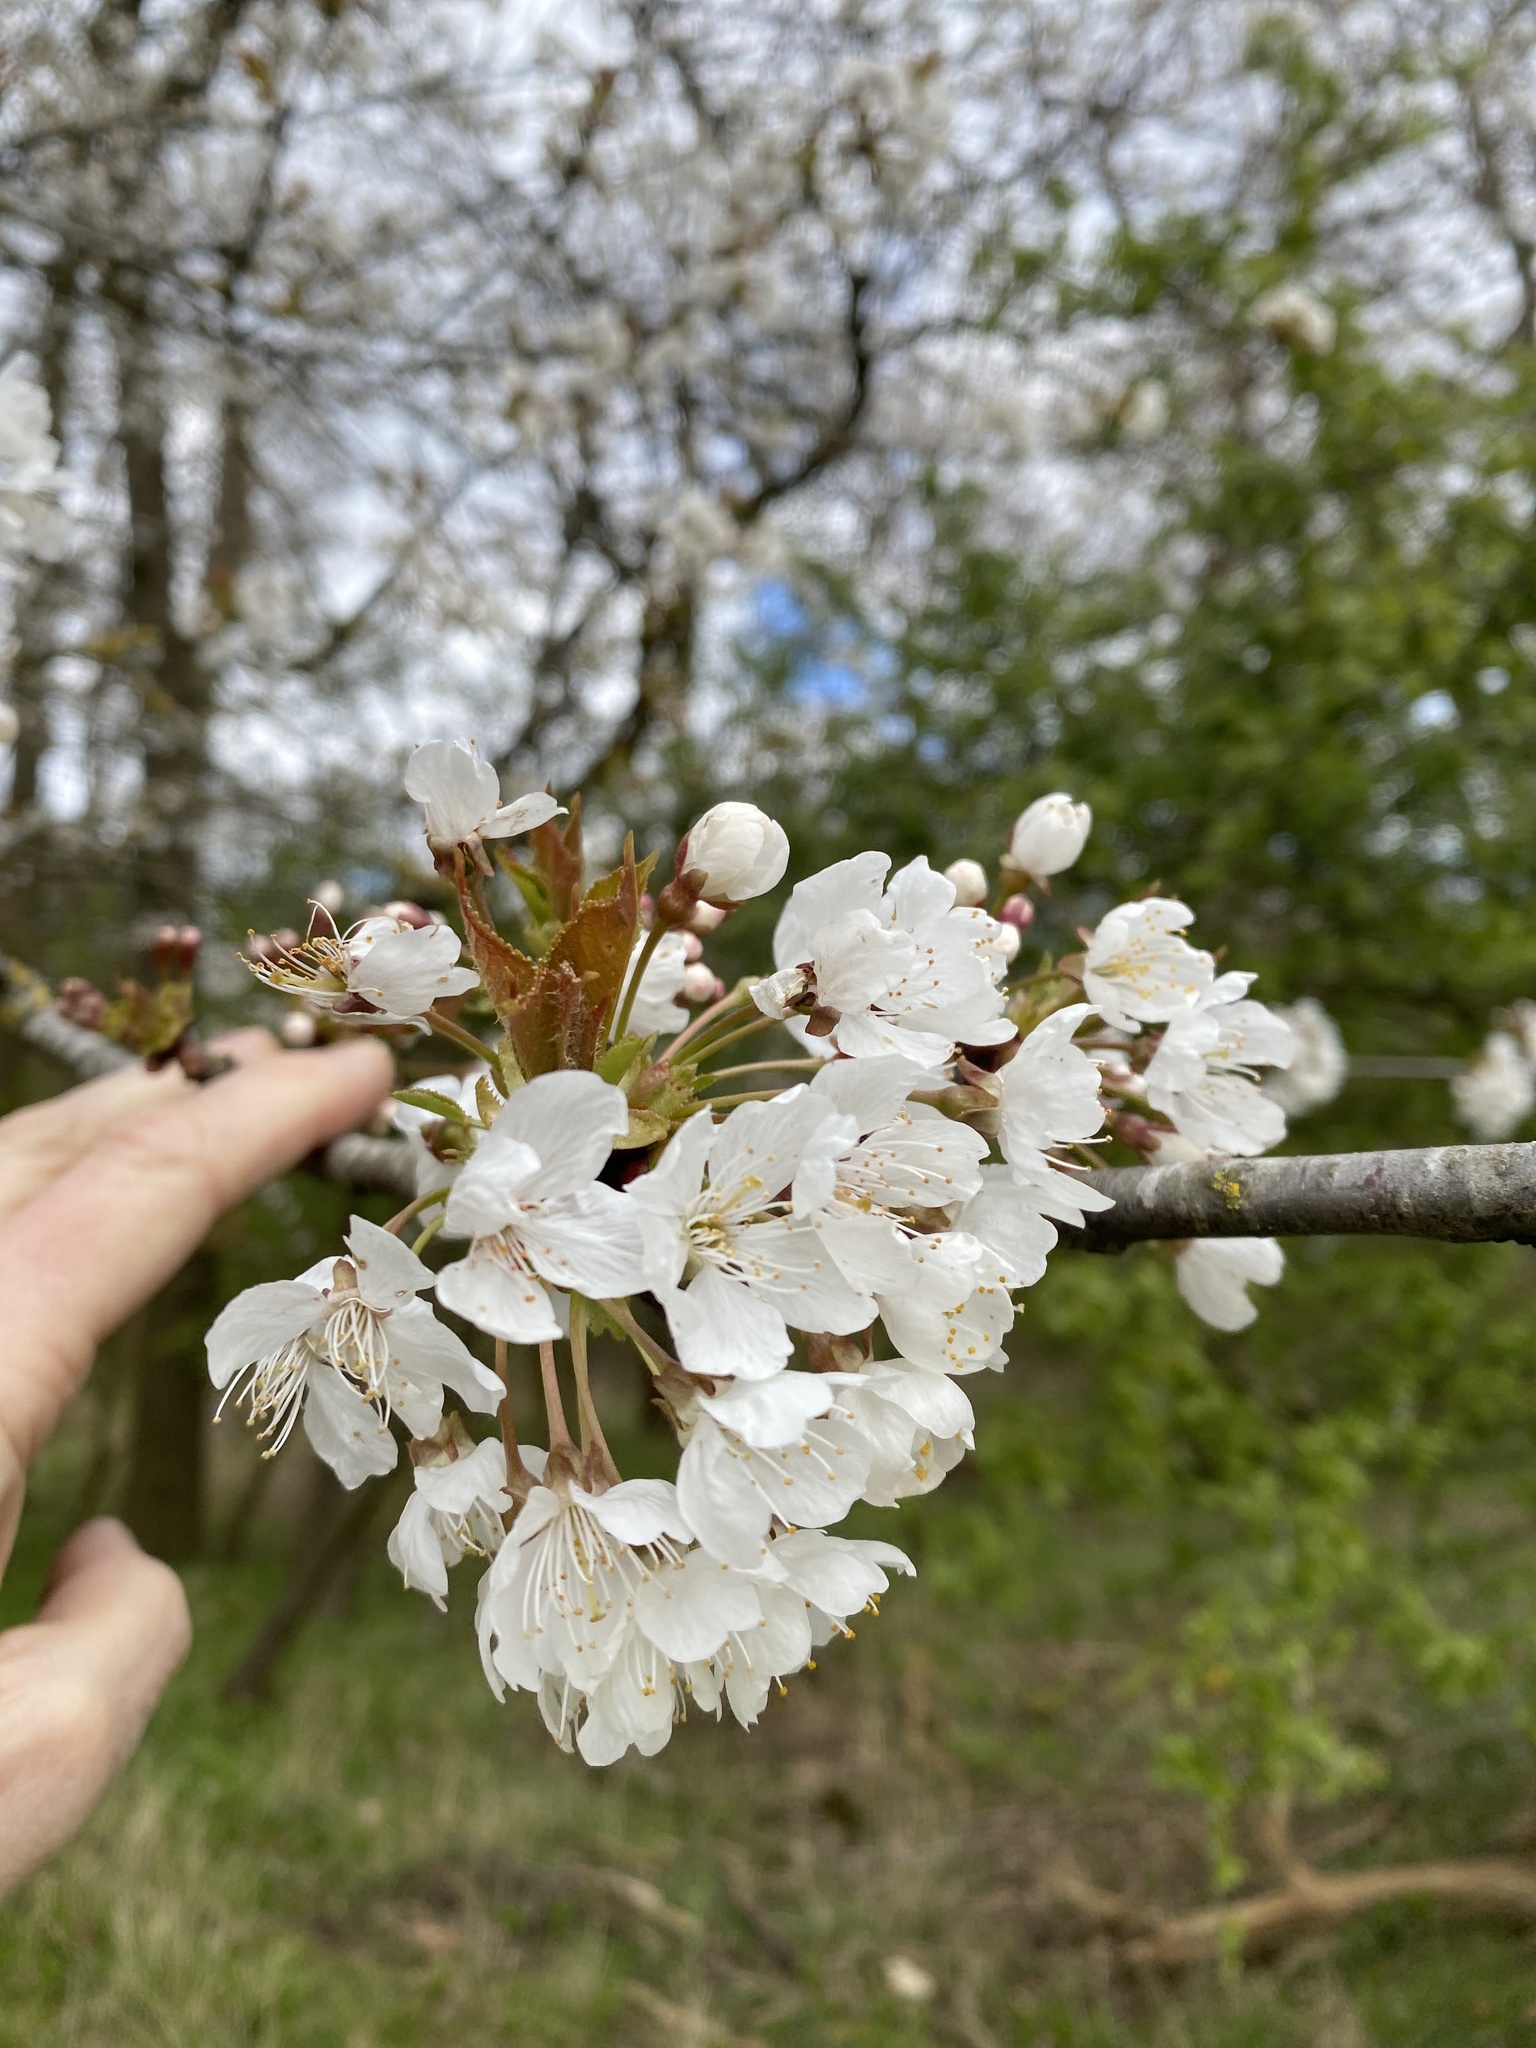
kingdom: Plantae
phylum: Tracheophyta
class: Magnoliopsida
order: Rosales
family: Rosaceae
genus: Prunus
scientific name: Prunus avium
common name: Sweet cherry
